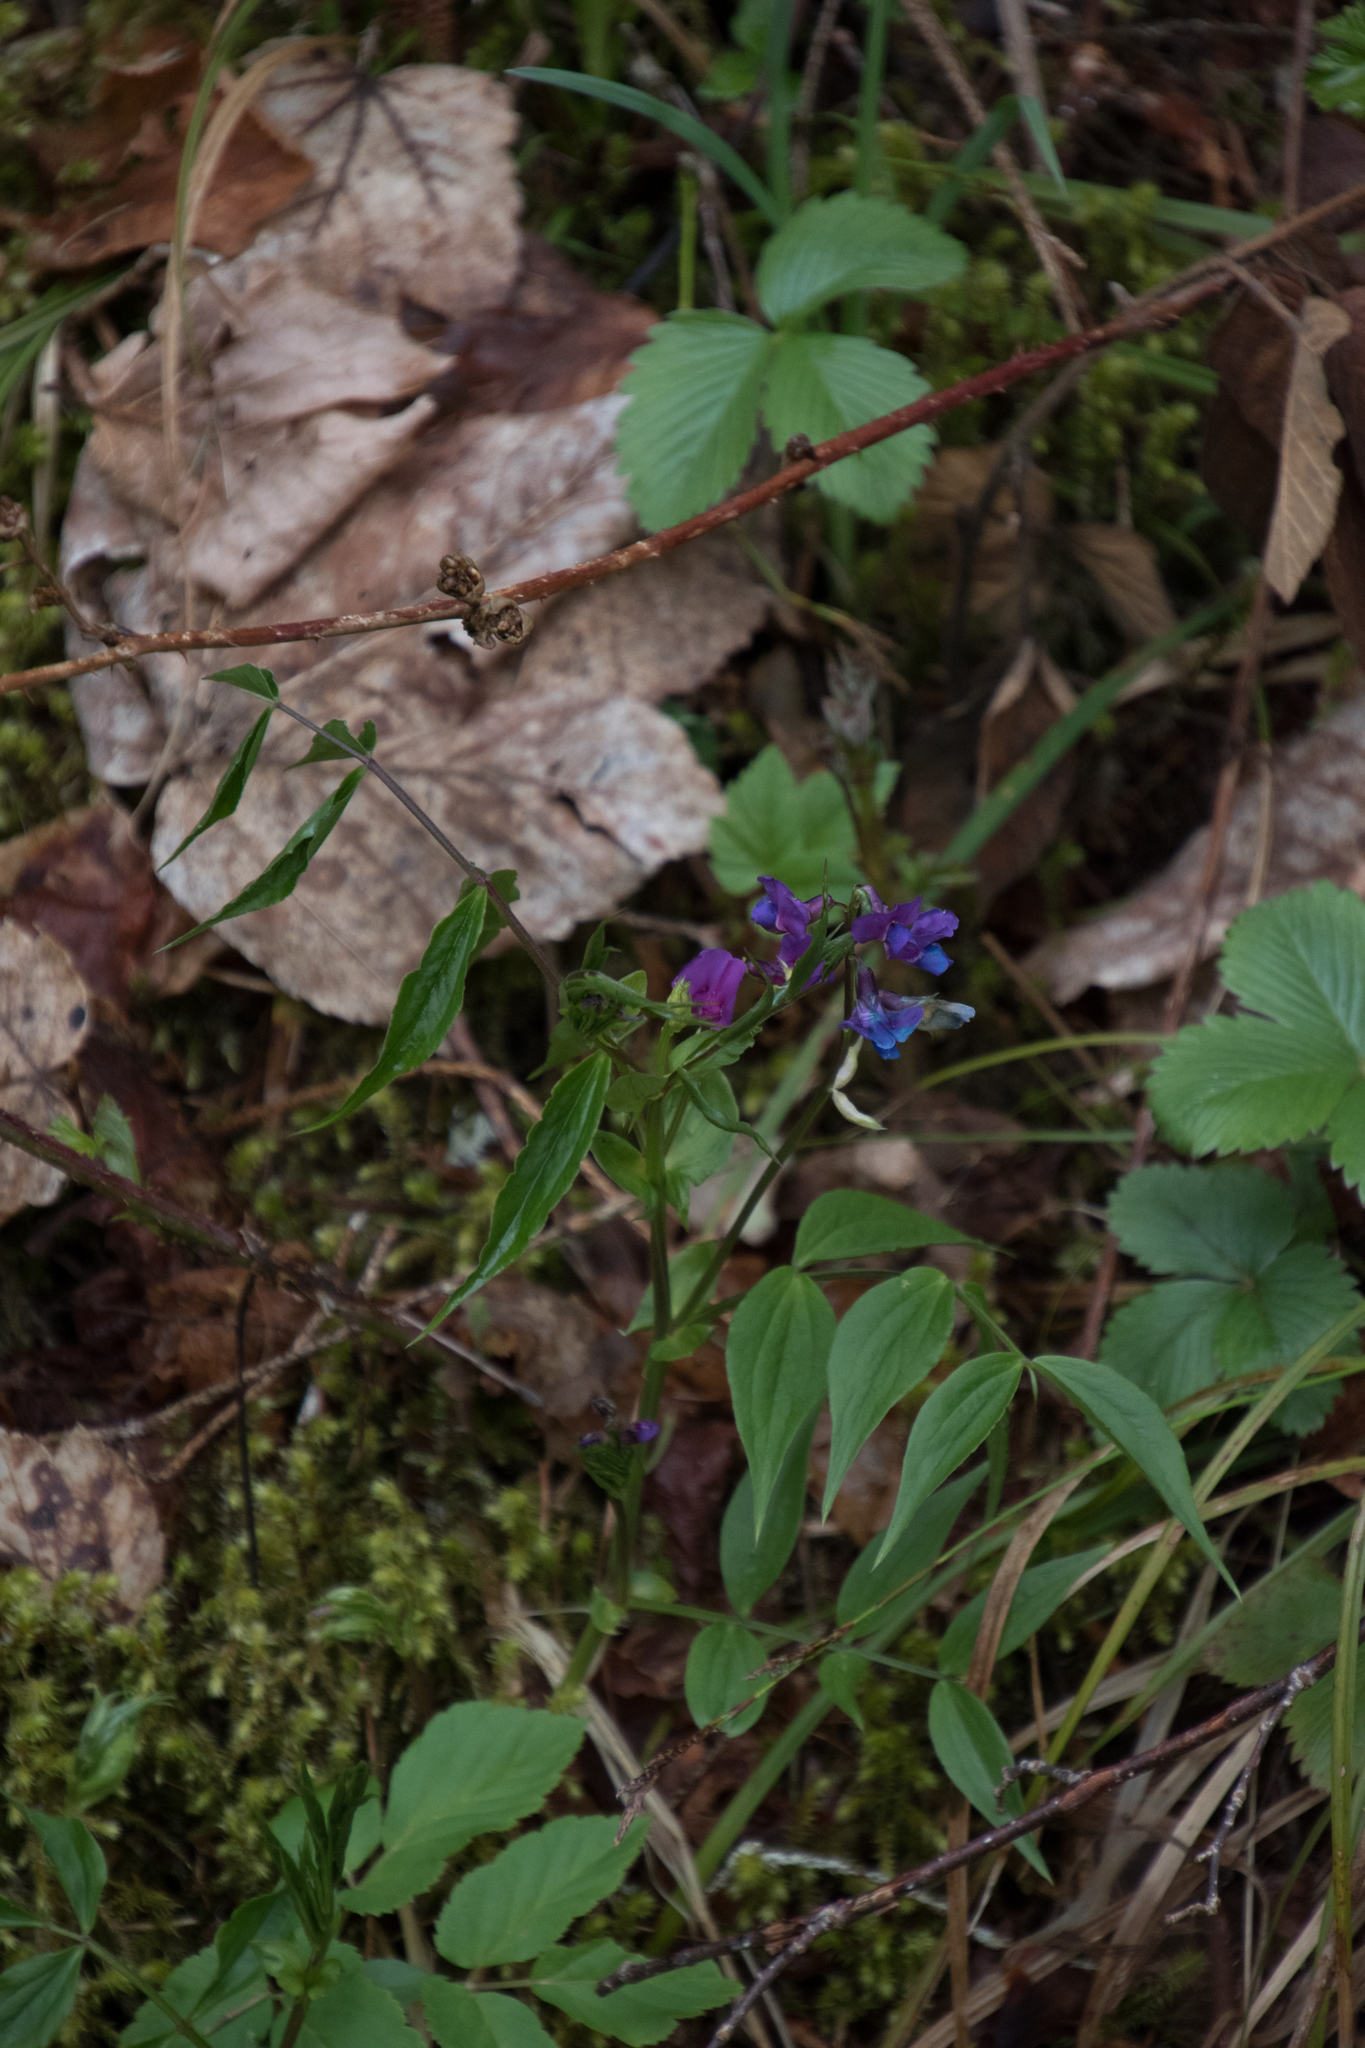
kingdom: Plantae
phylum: Tracheophyta
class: Magnoliopsida
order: Fabales
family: Fabaceae
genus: Lathyrus
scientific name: Lathyrus vernus
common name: Spring pea
